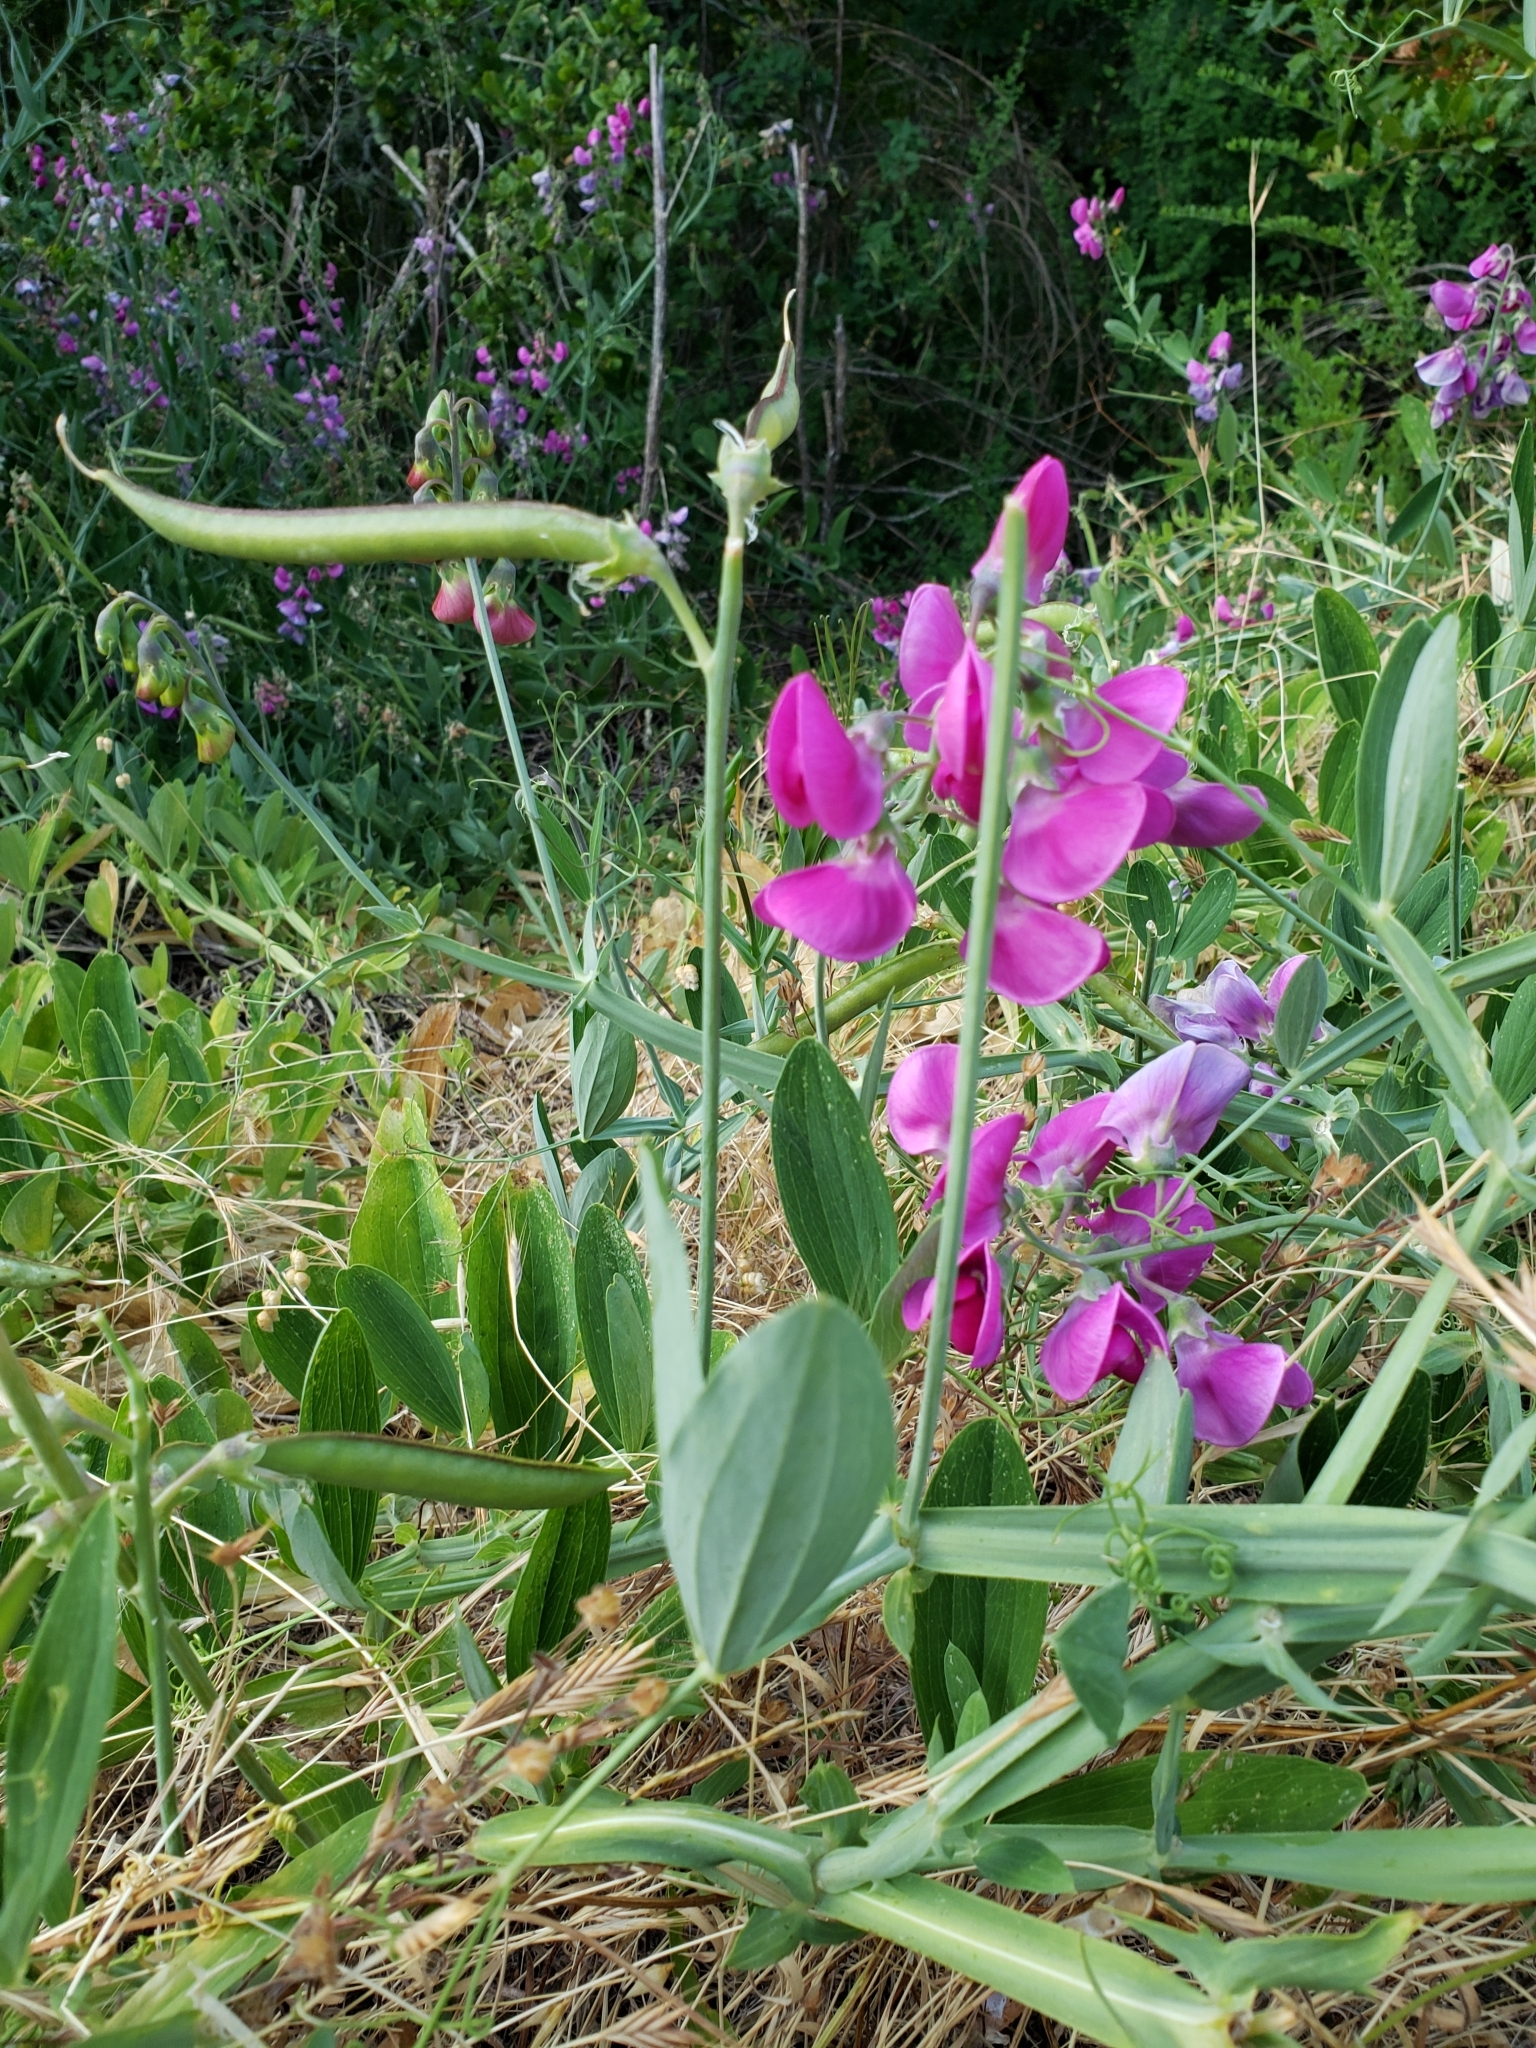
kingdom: Plantae
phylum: Tracheophyta
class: Magnoliopsida
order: Fabales
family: Fabaceae
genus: Lathyrus
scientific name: Lathyrus latifolius
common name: Perennial pea
